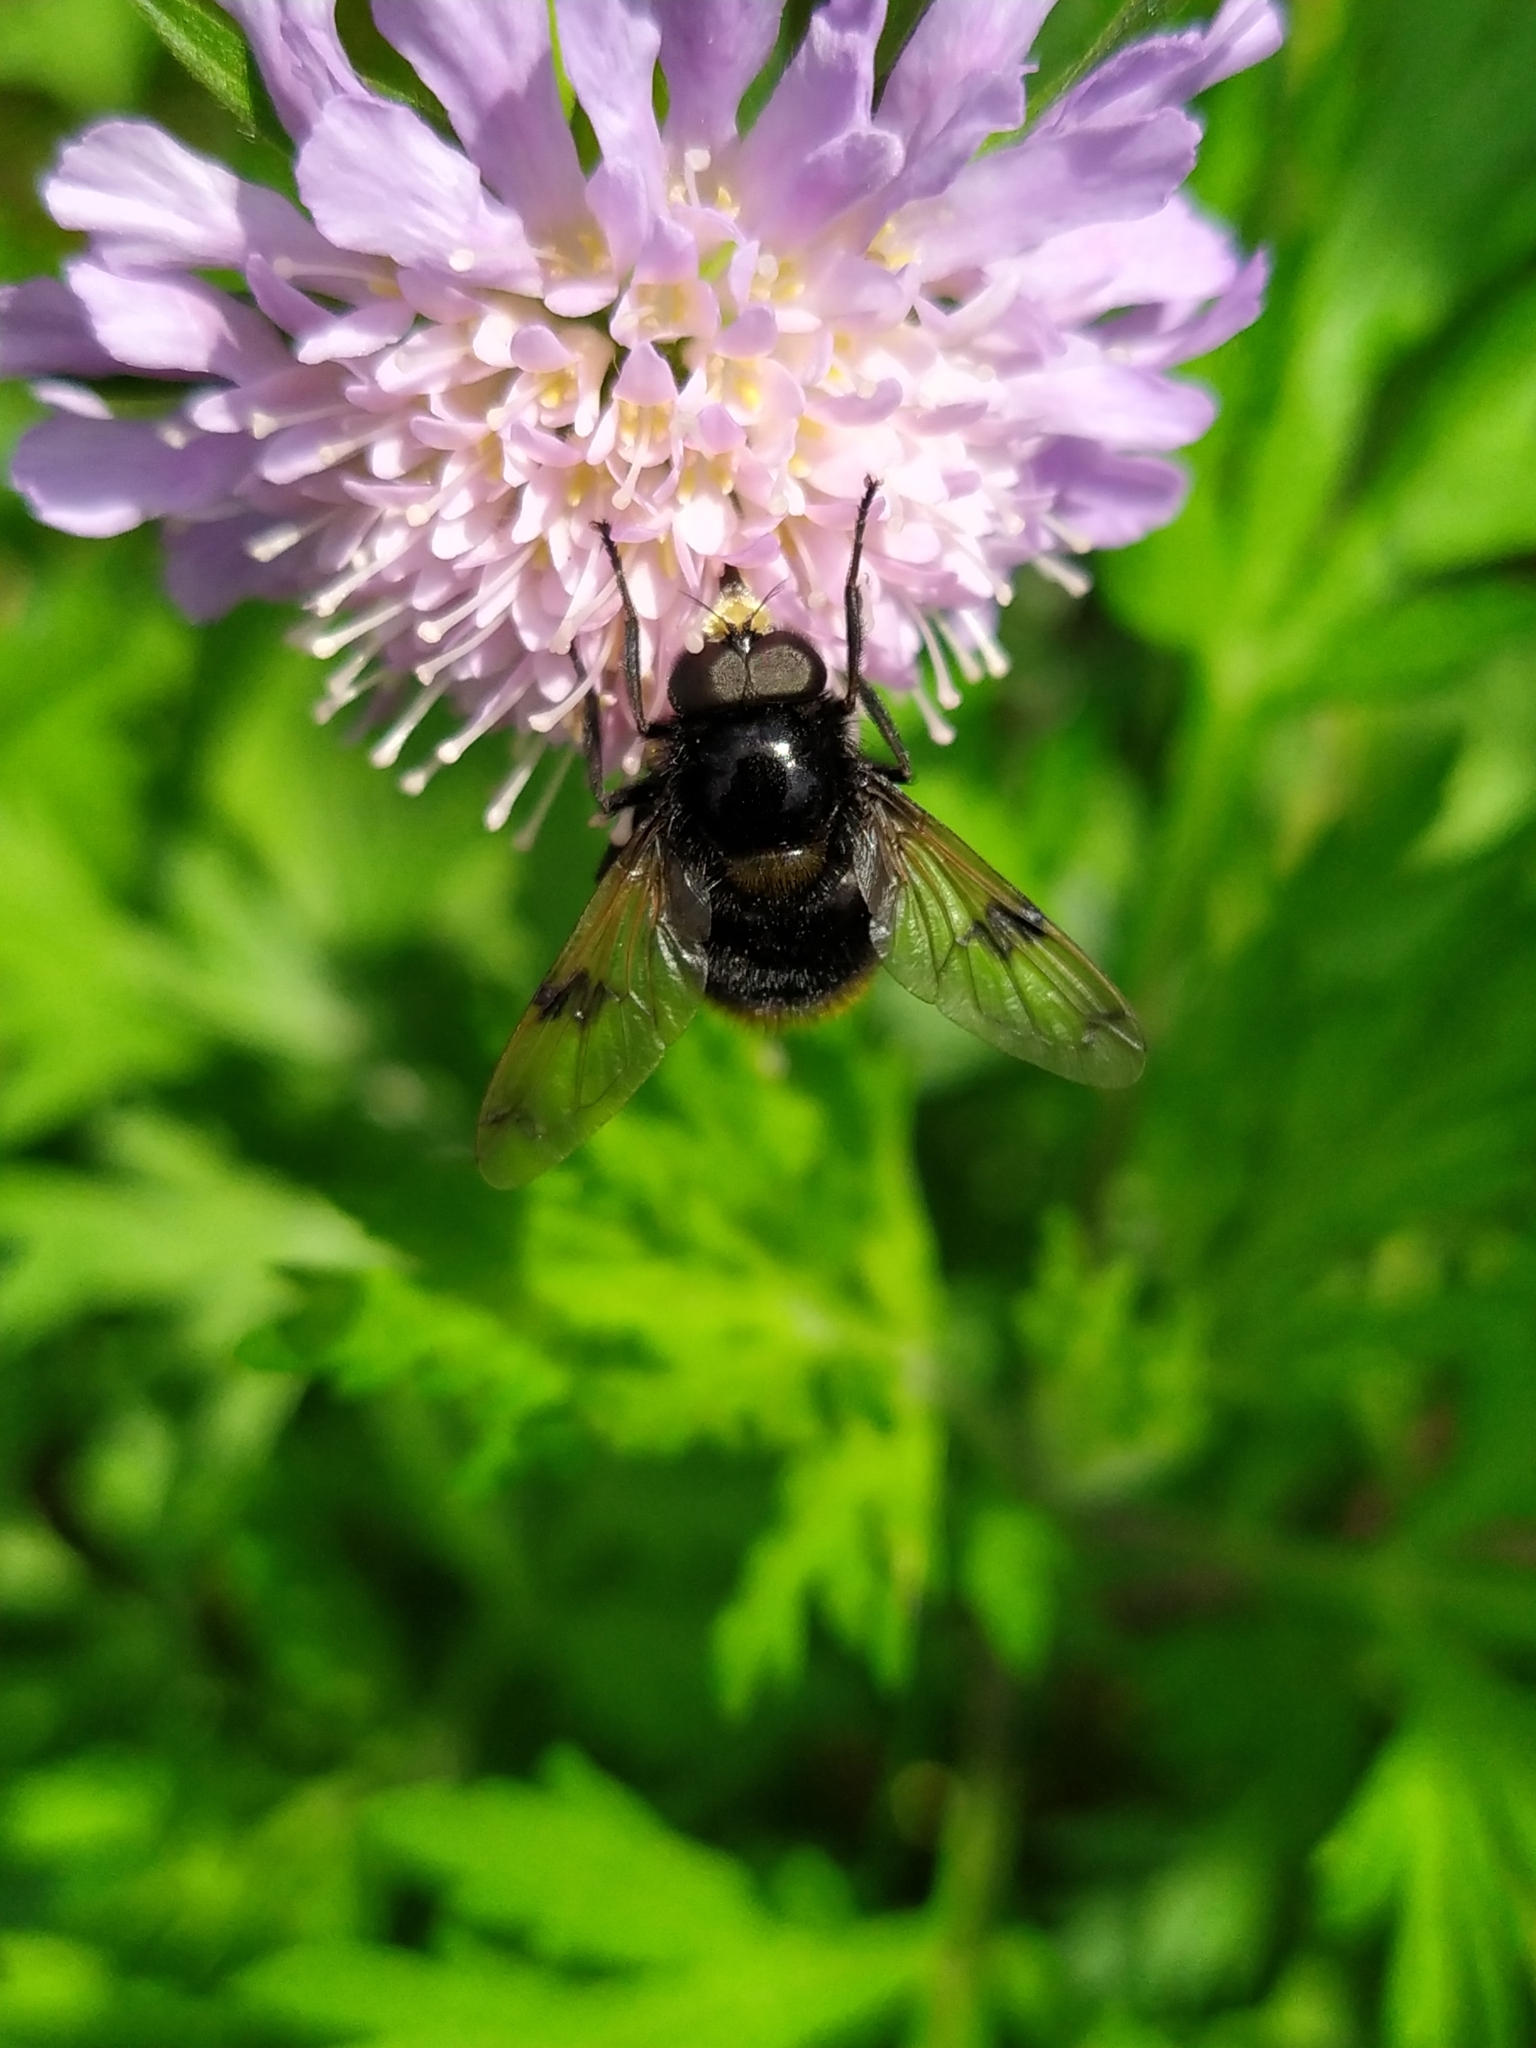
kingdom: Animalia
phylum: Arthropoda
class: Insecta
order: Diptera
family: Syrphidae
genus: Volucella
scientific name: Volucella bombylans
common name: Bumble bee hover fly
